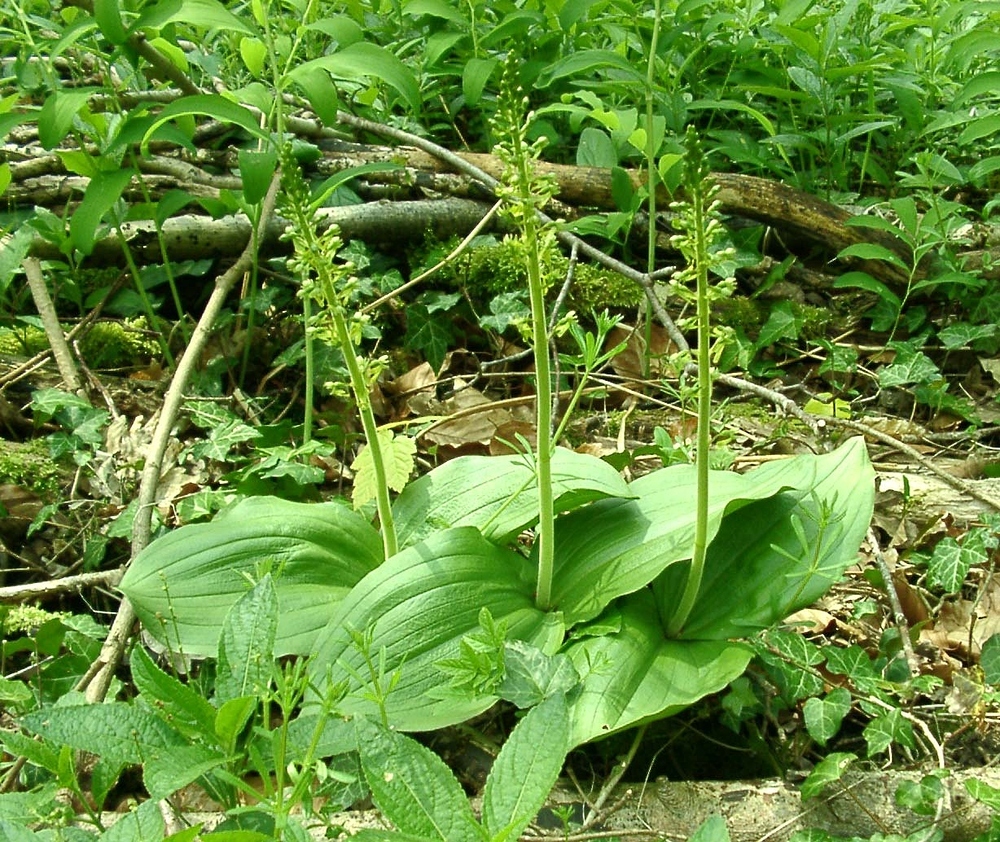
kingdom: Plantae
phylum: Tracheophyta
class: Liliopsida
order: Asparagales
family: Orchidaceae
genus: Neottia
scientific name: Neottia ovata
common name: Common twayblade
